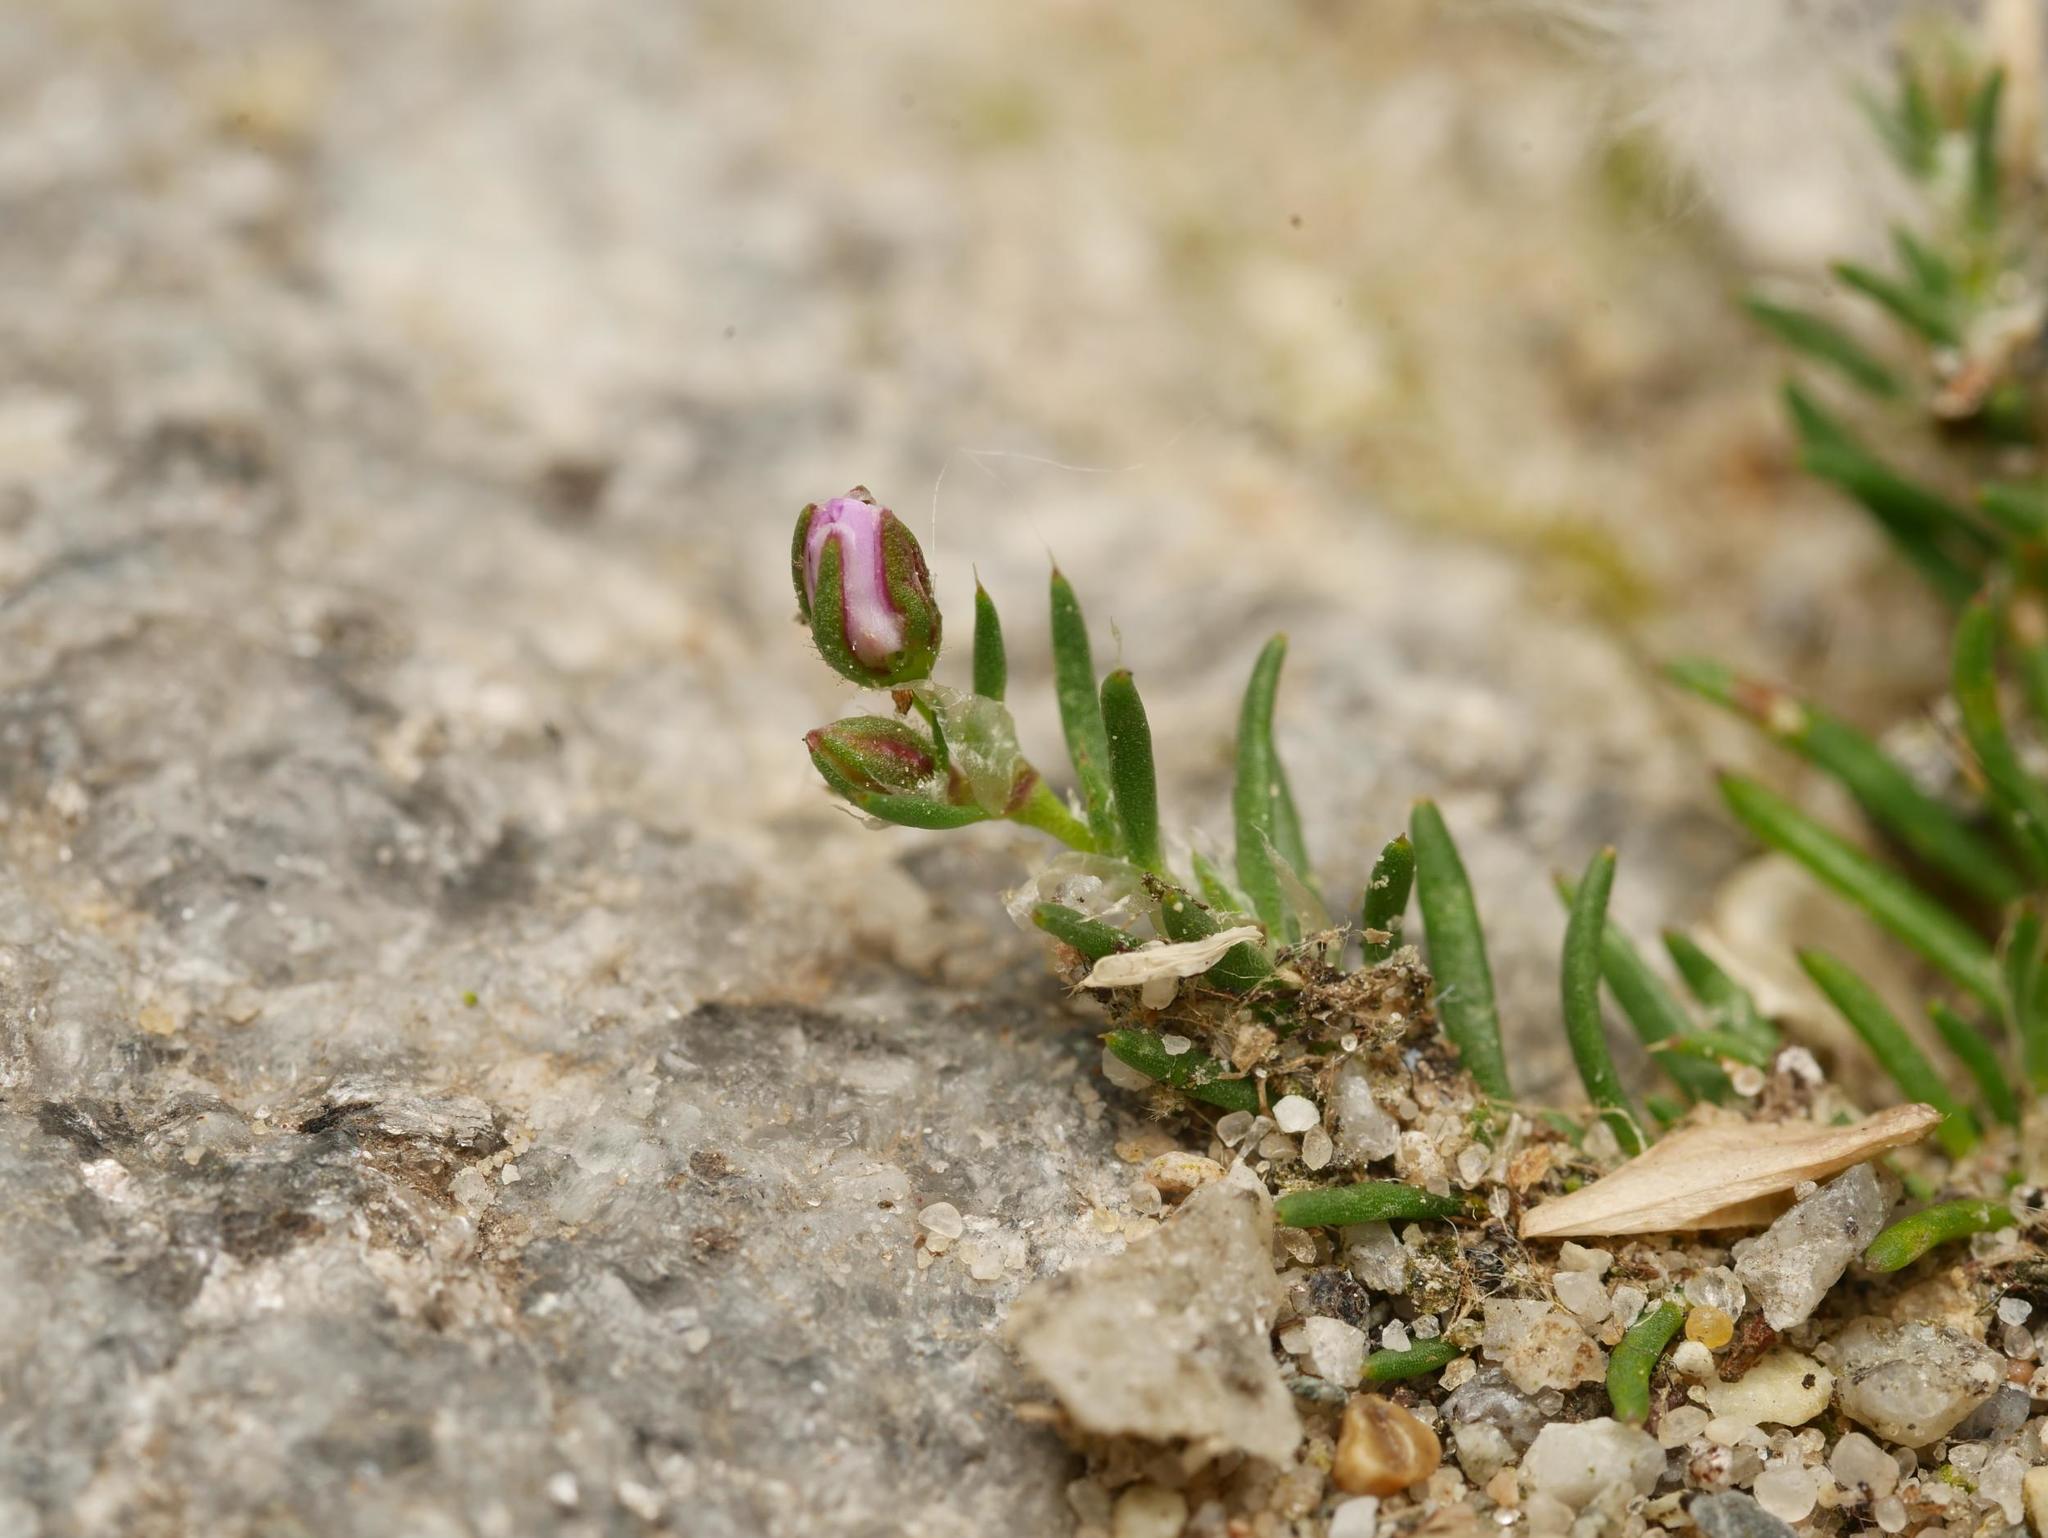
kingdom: Plantae
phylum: Tracheophyta
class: Magnoliopsida
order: Caryophyllales
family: Caryophyllaceae
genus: Spergularia
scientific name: Spergularia rubra
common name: Red sand-spurrey
